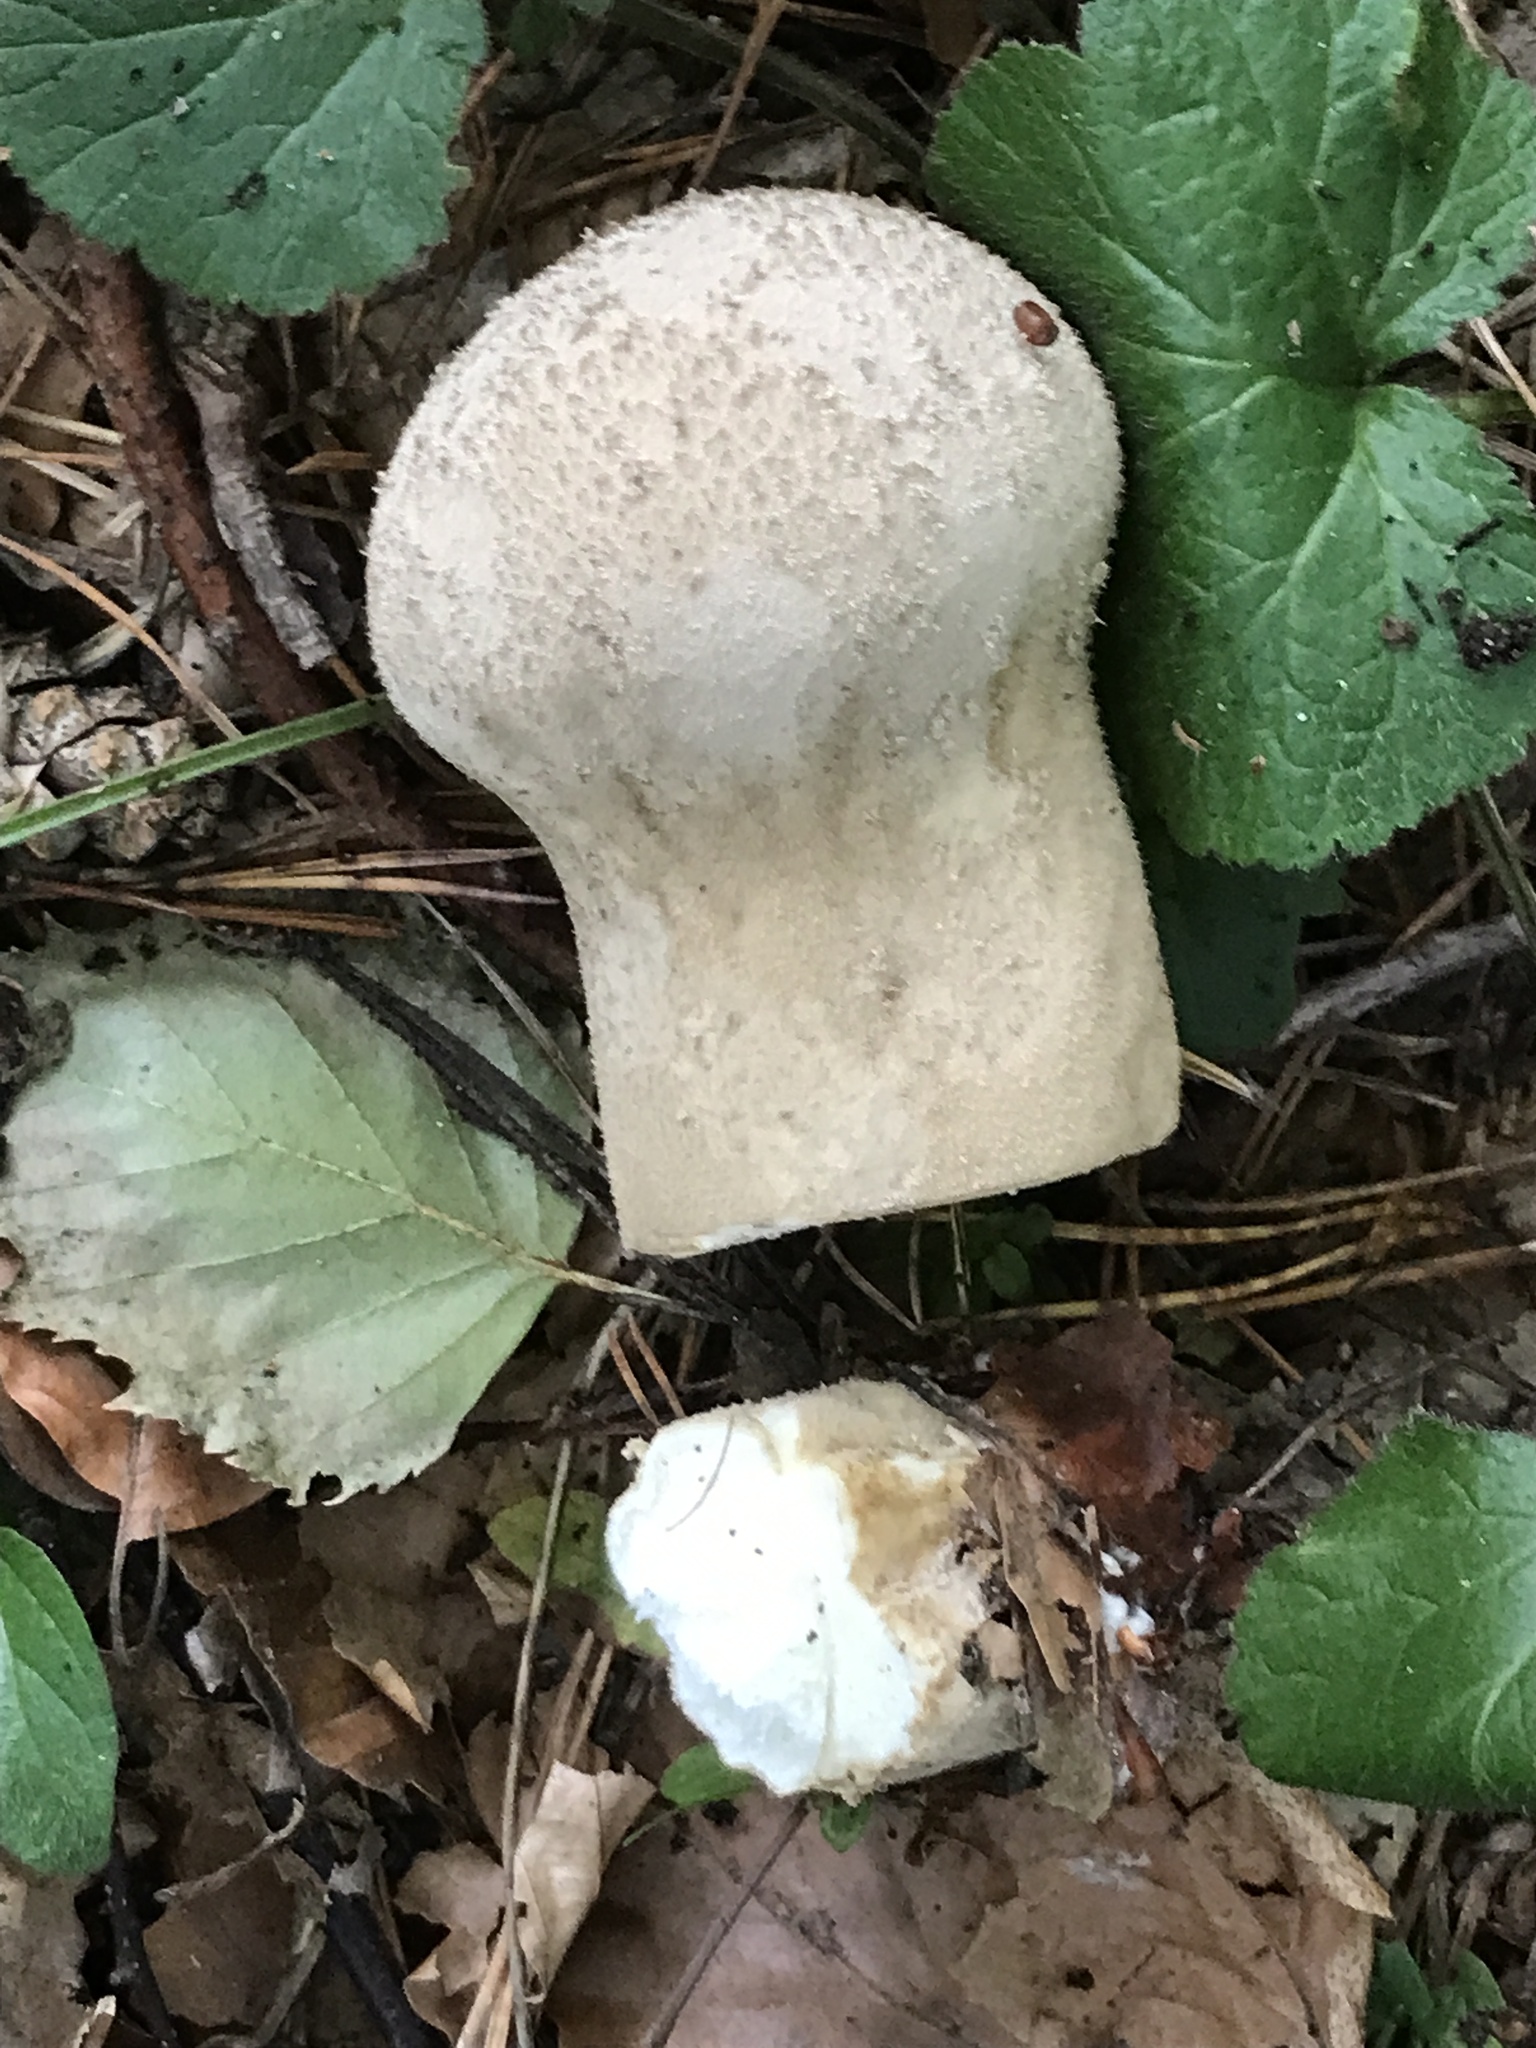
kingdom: Fungi
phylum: Basidiomycota
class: Agaricomycetes
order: Agaricales
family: Lycoperdaceae
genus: Lycoperdon
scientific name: Lycoperdon excipuliforme
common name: Pestle puffball
